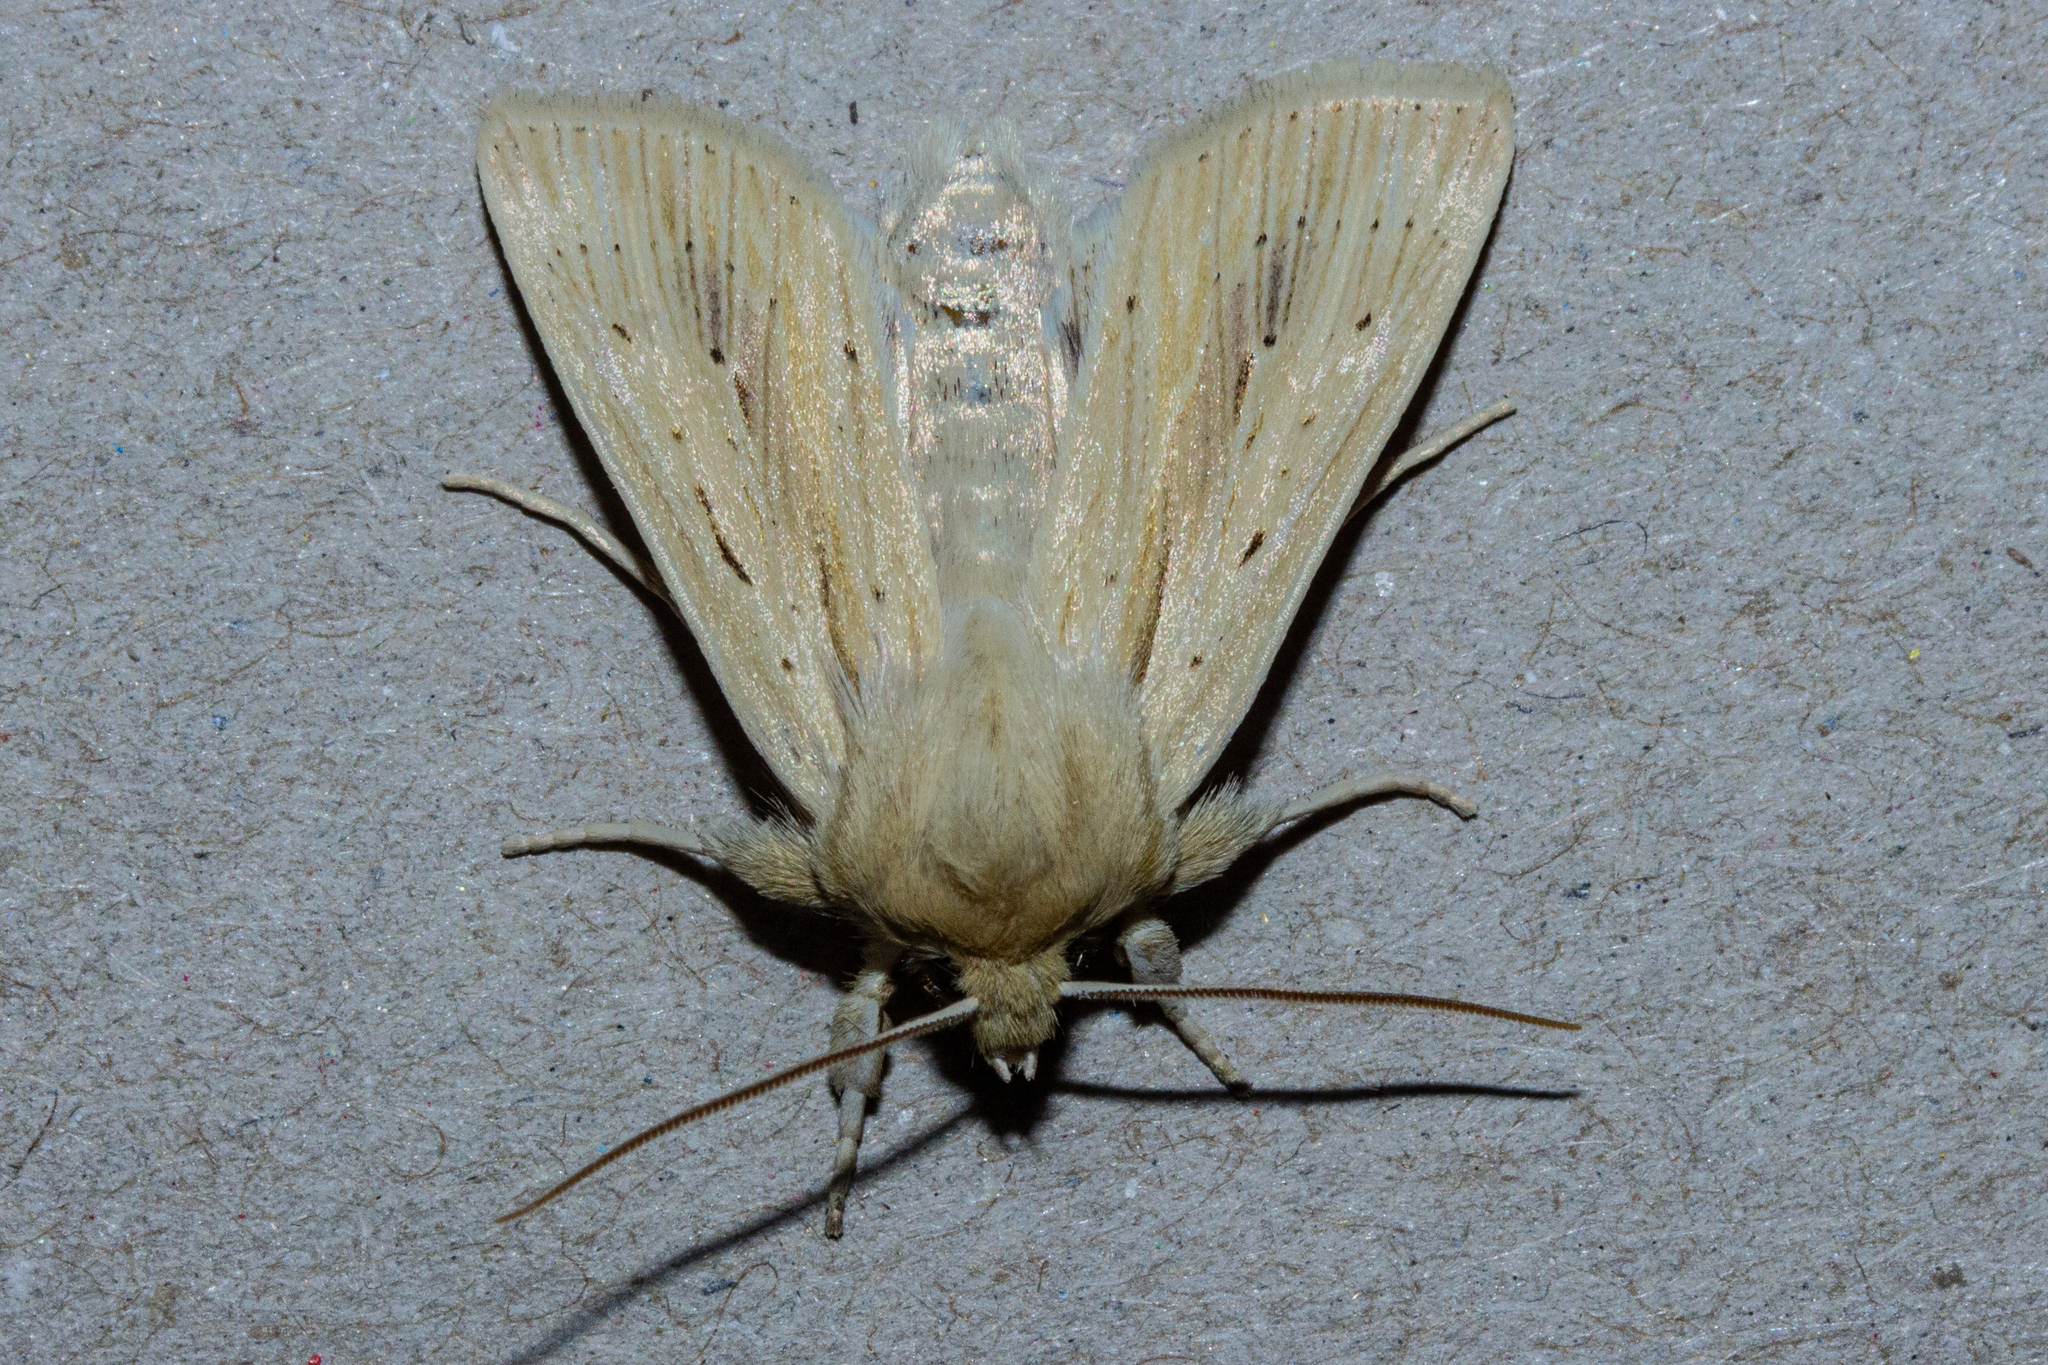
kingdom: Animalia
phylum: Arthropoda
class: Insecta
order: Lepidoptera
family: Noctuidae
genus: Ichneutica
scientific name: Ichneutica semivittata
